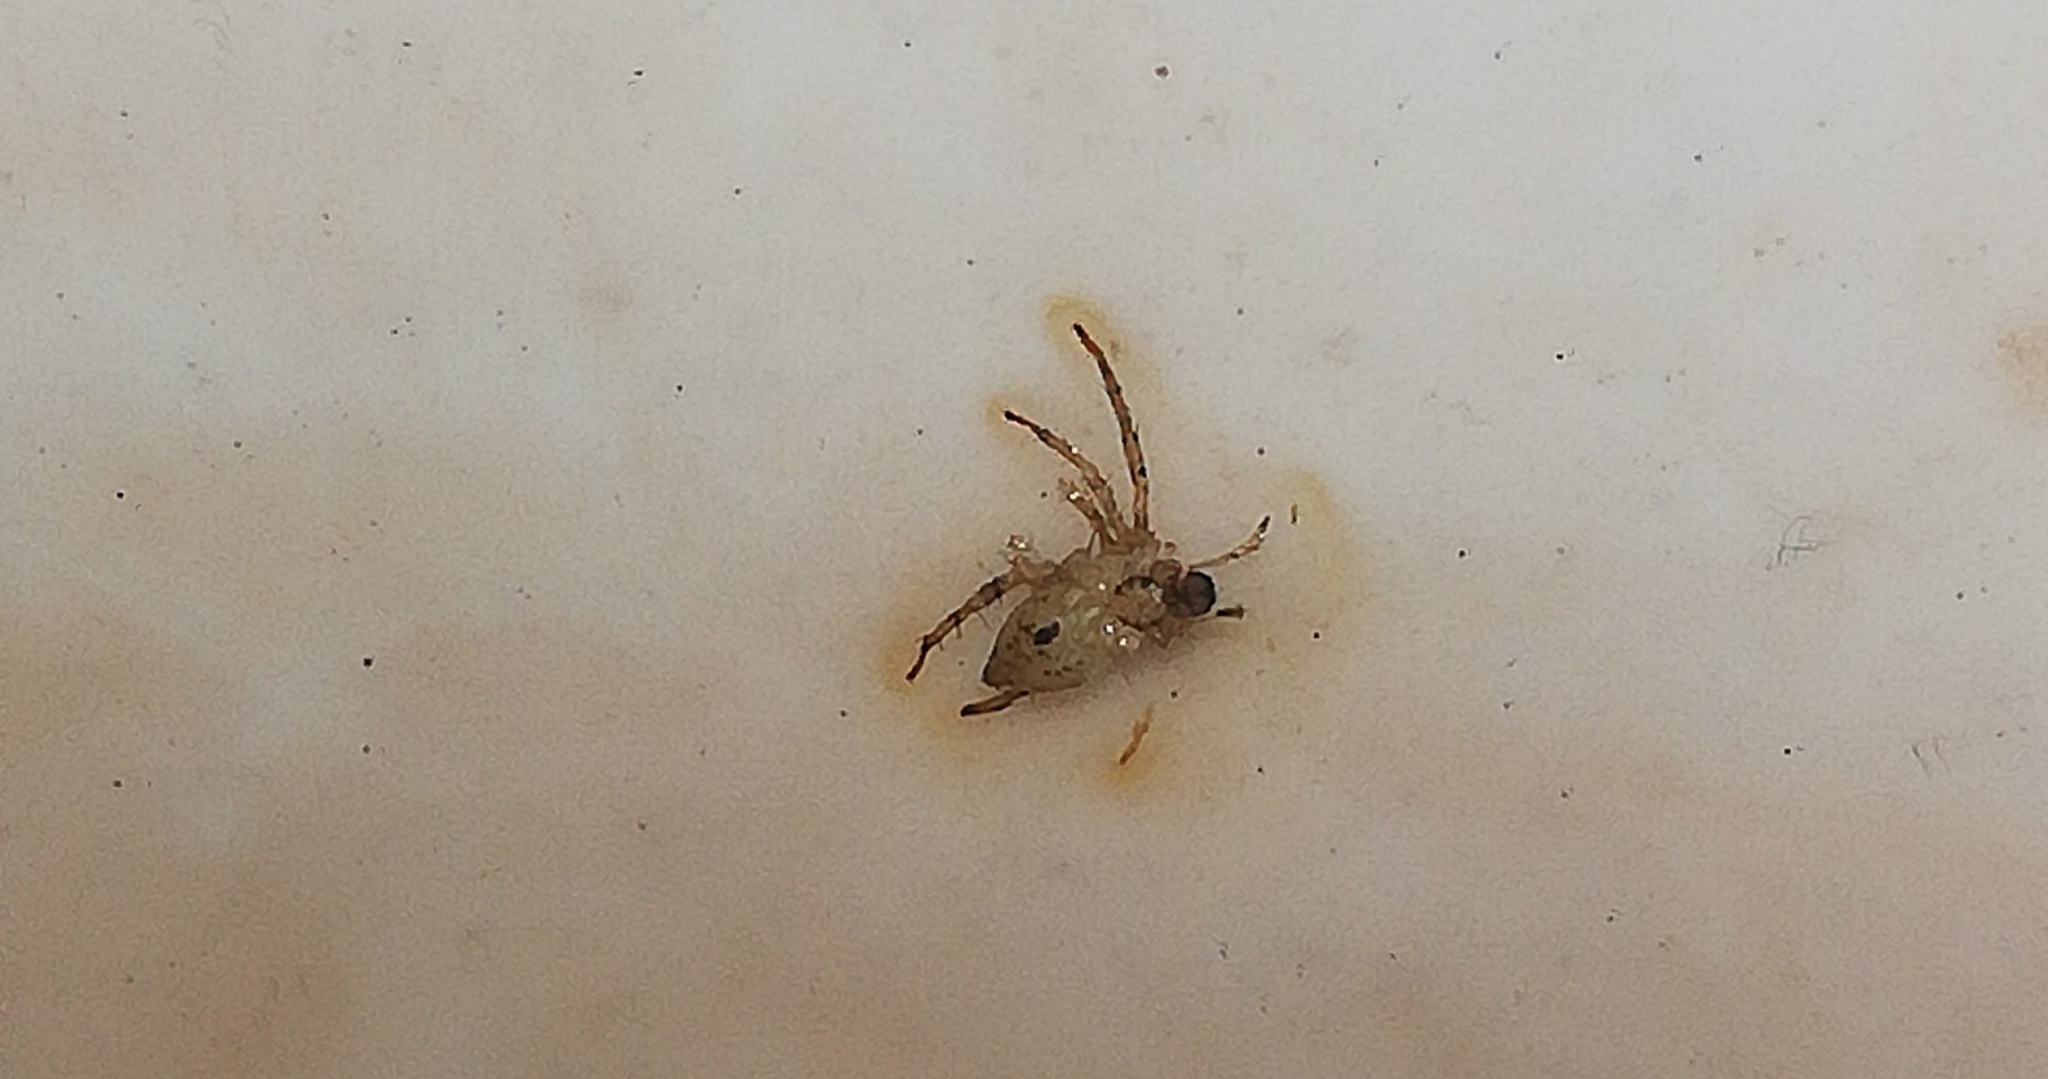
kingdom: Animalia
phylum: Arthropoda
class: Arachnida
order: Araneae
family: Anyphaenidae
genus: Anyphaena
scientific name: Anyphaena accentuata
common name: Buzzing spider
